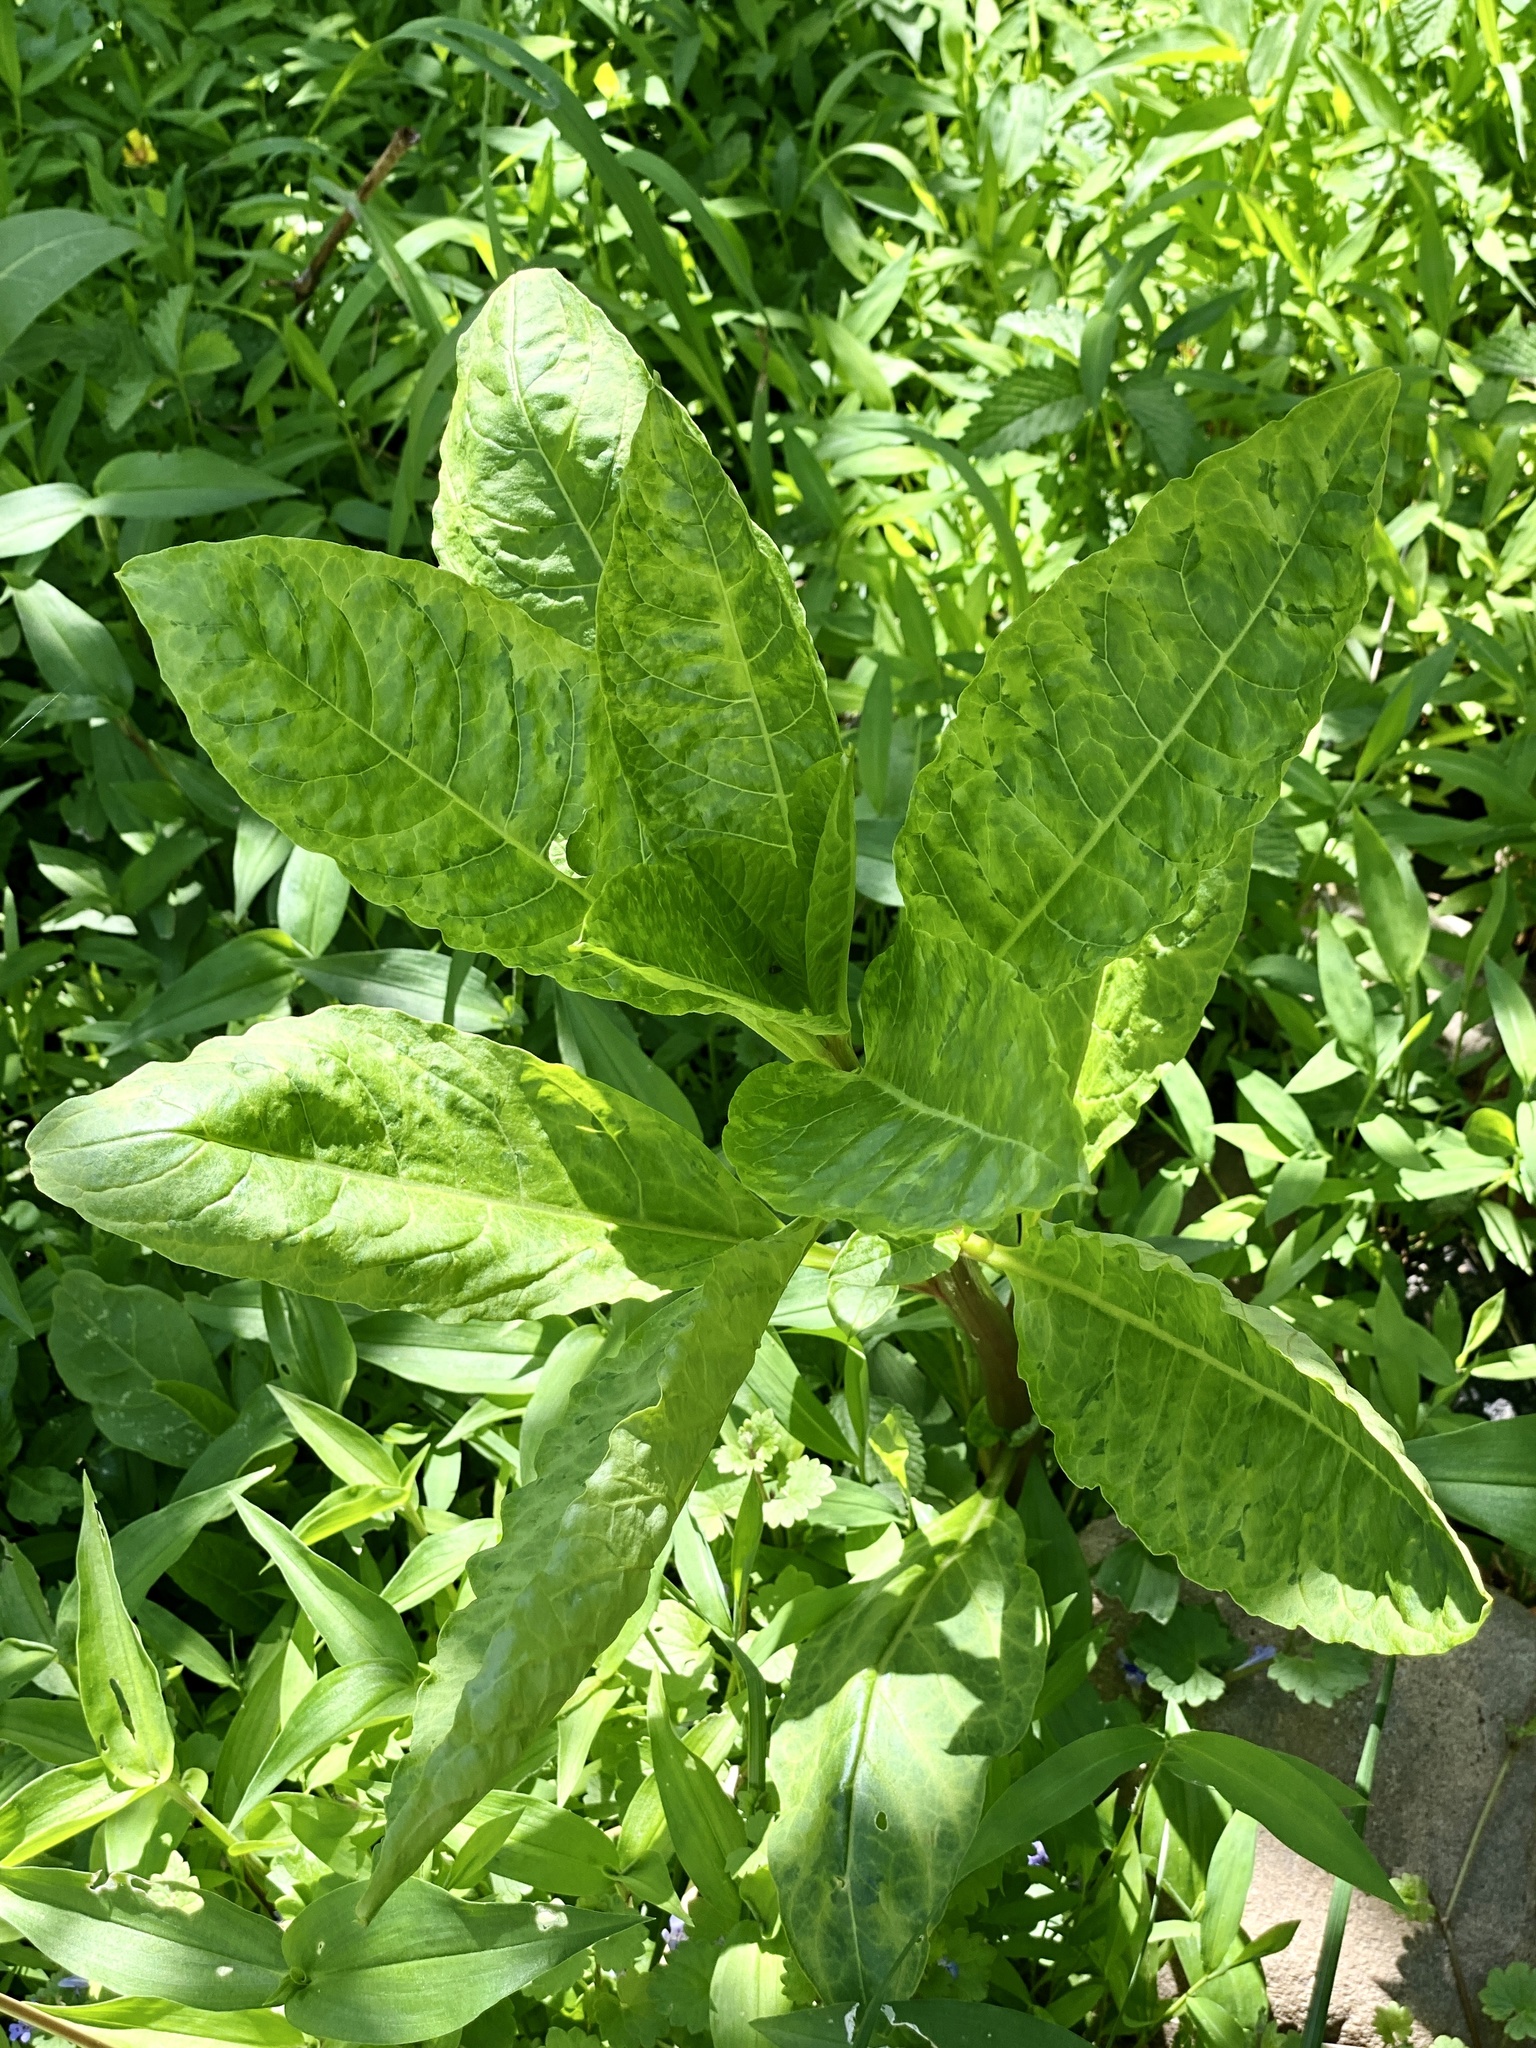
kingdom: Viruses
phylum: Pisuviricota
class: Stelpaviricetes
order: Patatavirales
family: Potyviridae
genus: Potyvirus
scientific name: Potyvirus Pokeweed mosaic virus
